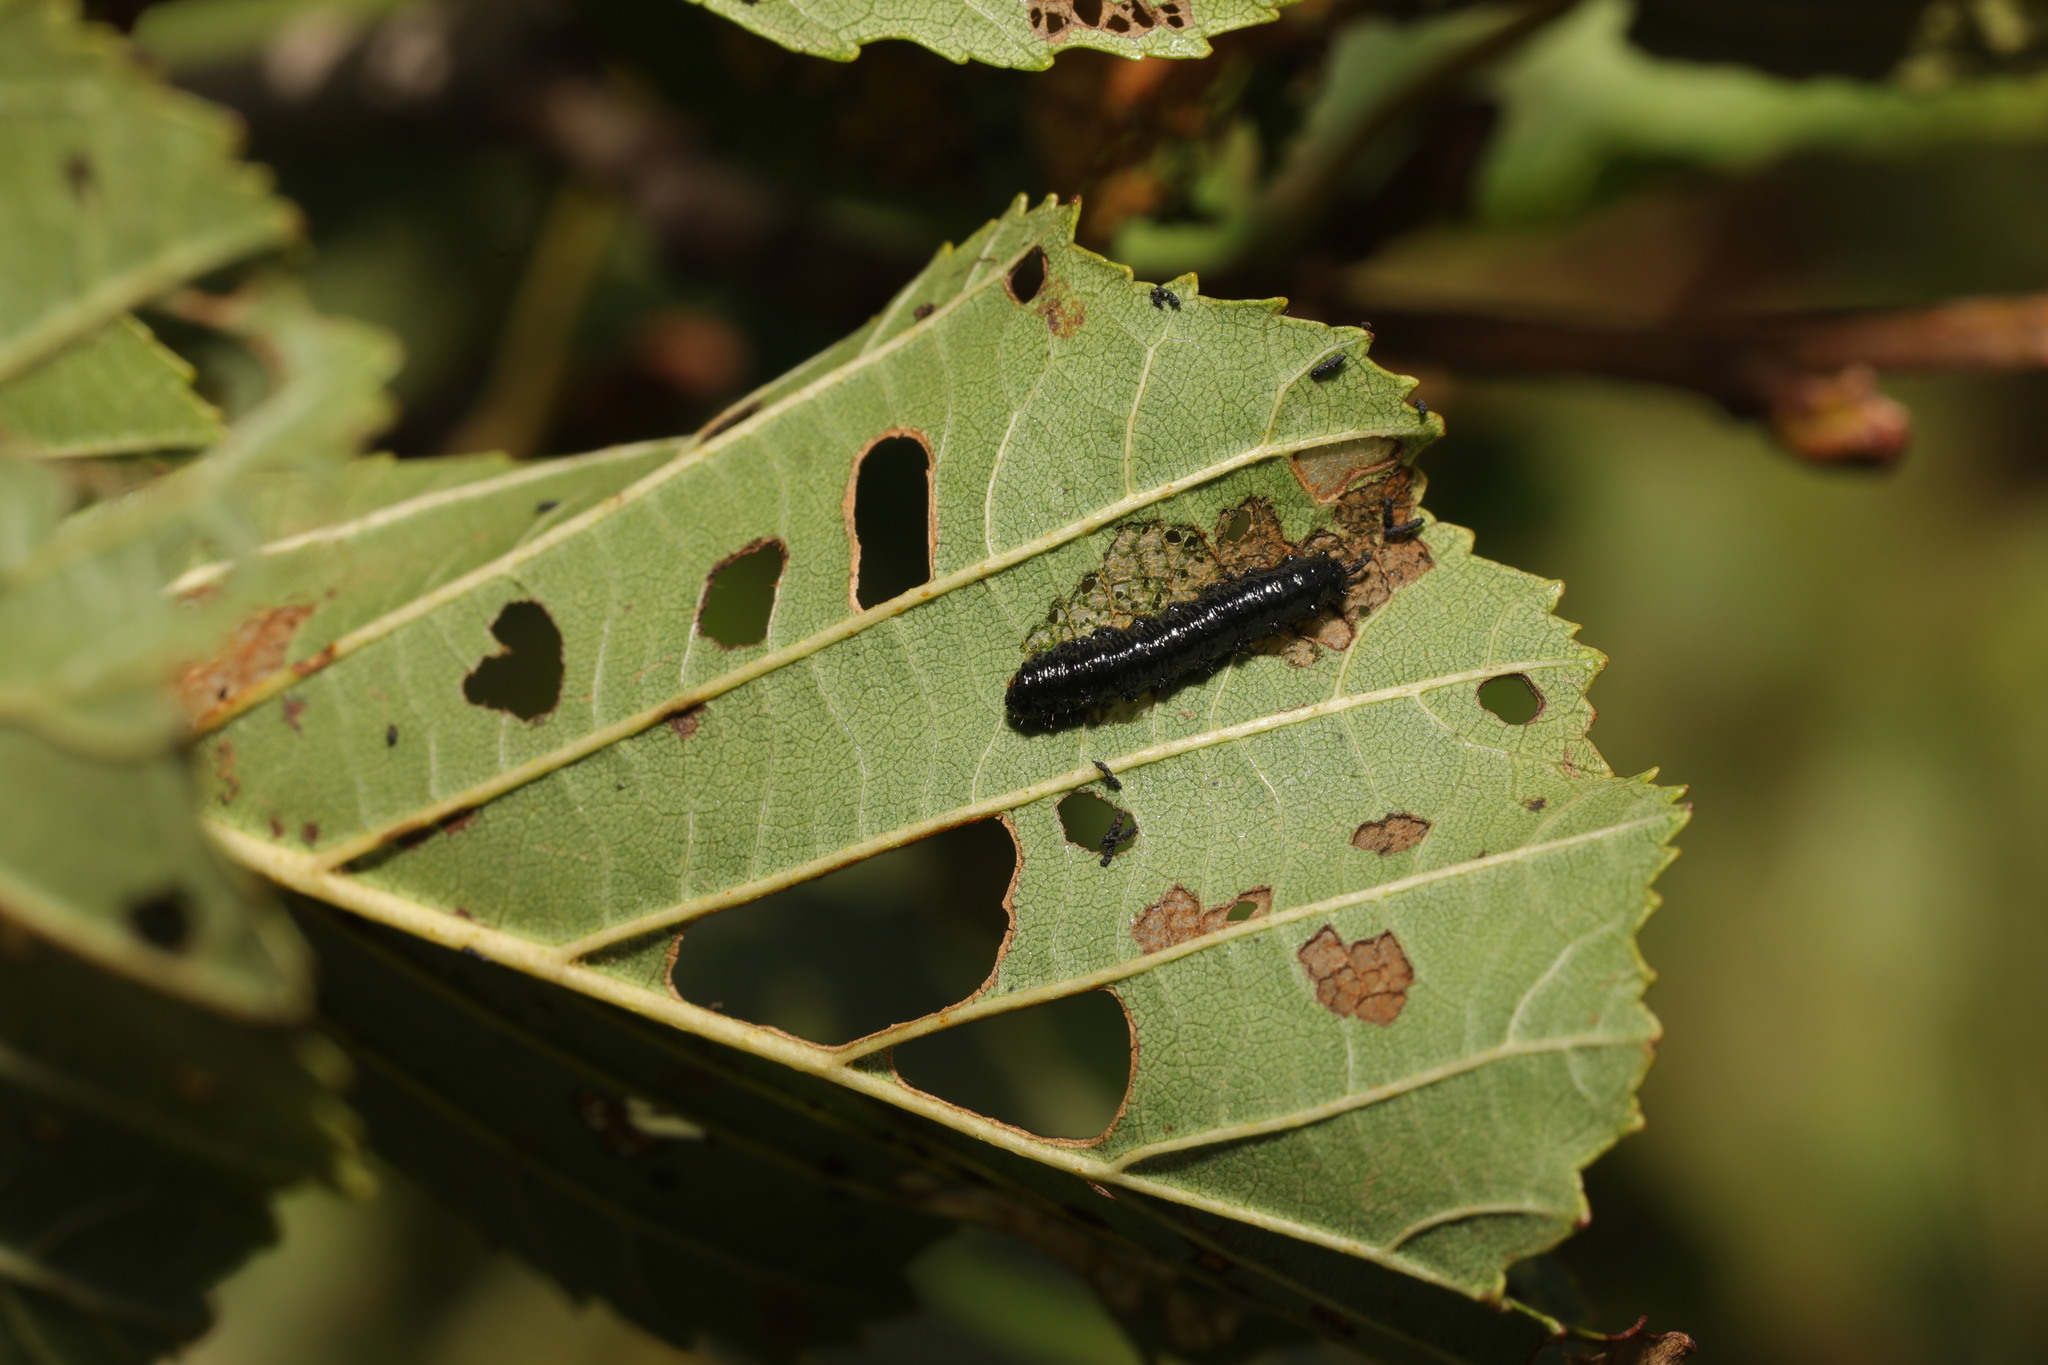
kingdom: Animalia
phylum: Arthropoda
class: Insecta
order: Coleoptera
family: Chrysomelidae
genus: Agelastica
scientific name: Agelastica alni
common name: Alder leaf beetle
